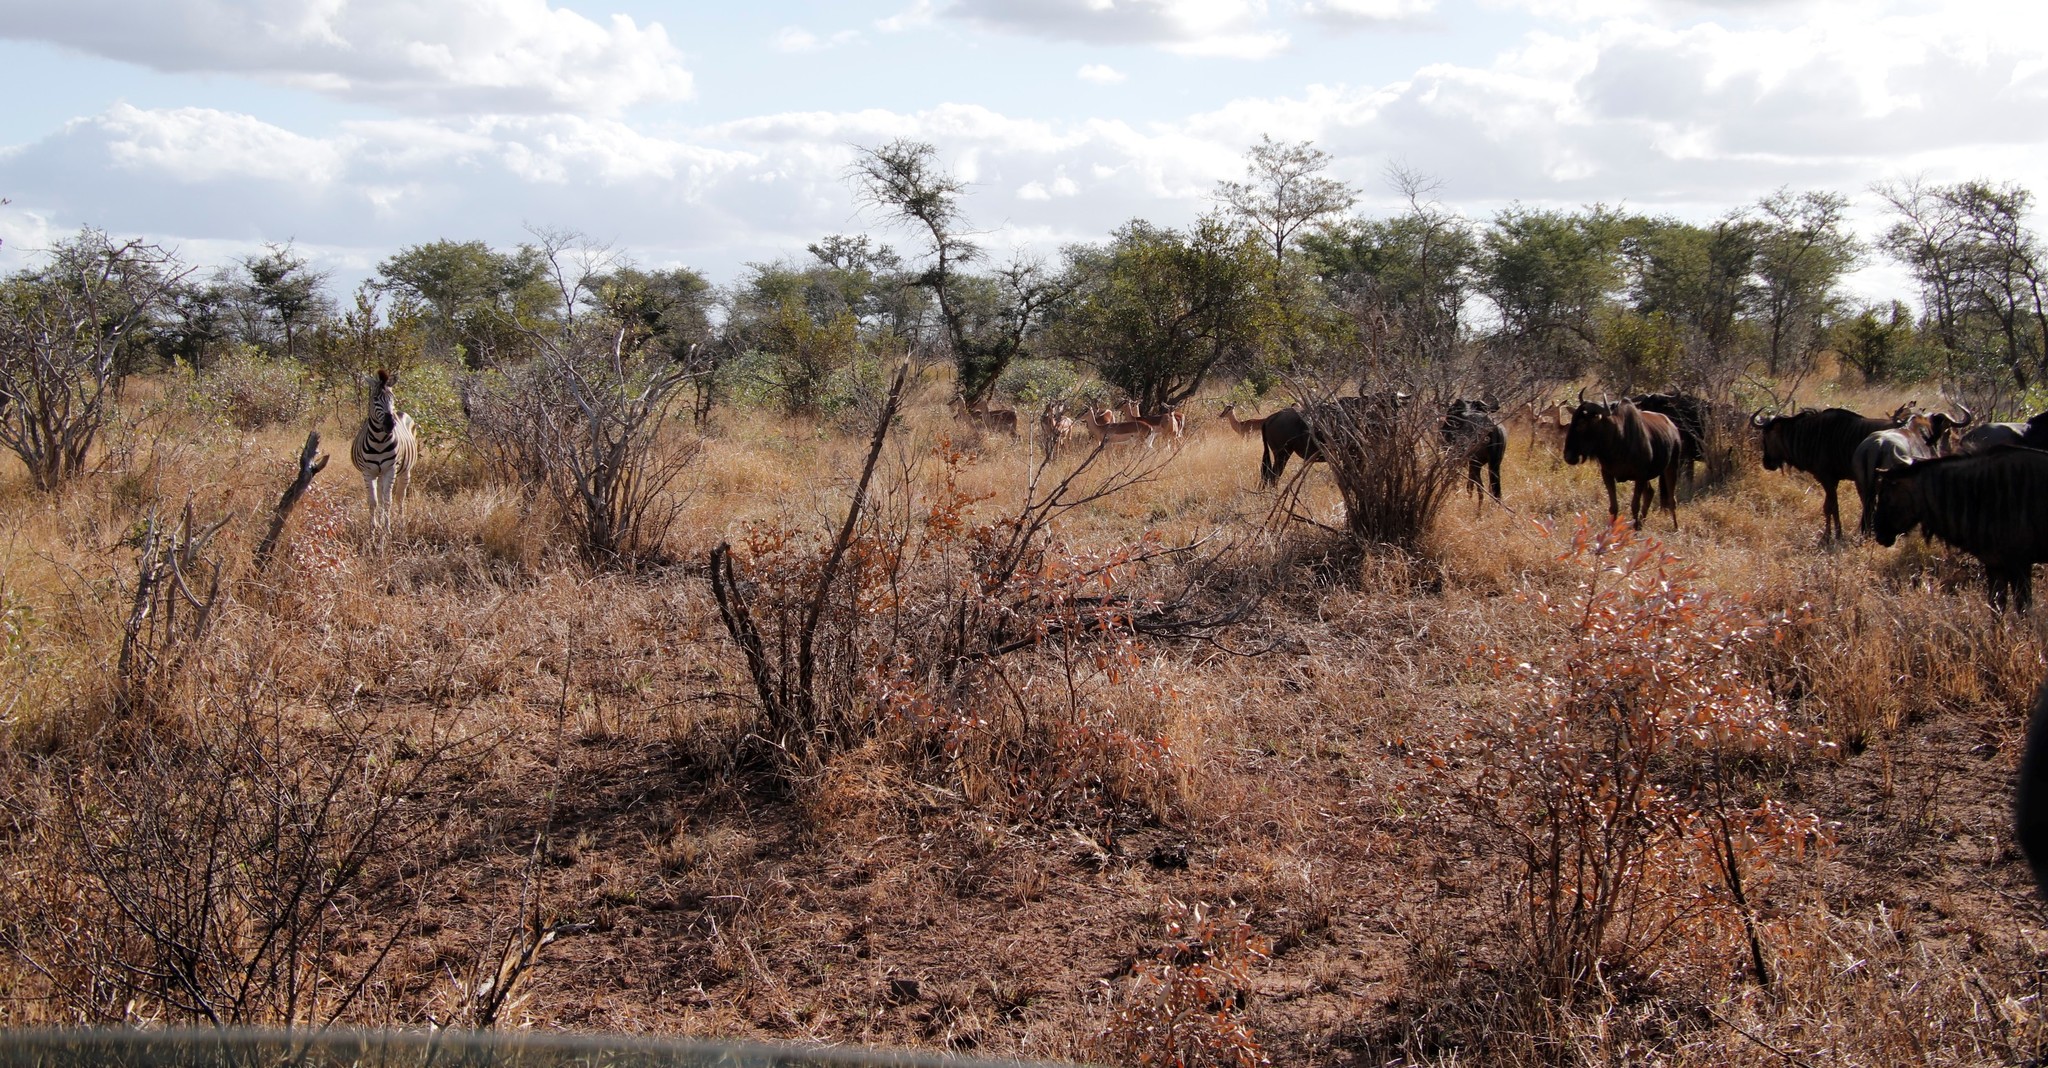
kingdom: Animalia
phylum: Chordata
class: Mammalia
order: Artiodactyla
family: Bovidae
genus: Connochaetes
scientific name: Connochaetes taurinus
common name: Blue wildebeest
